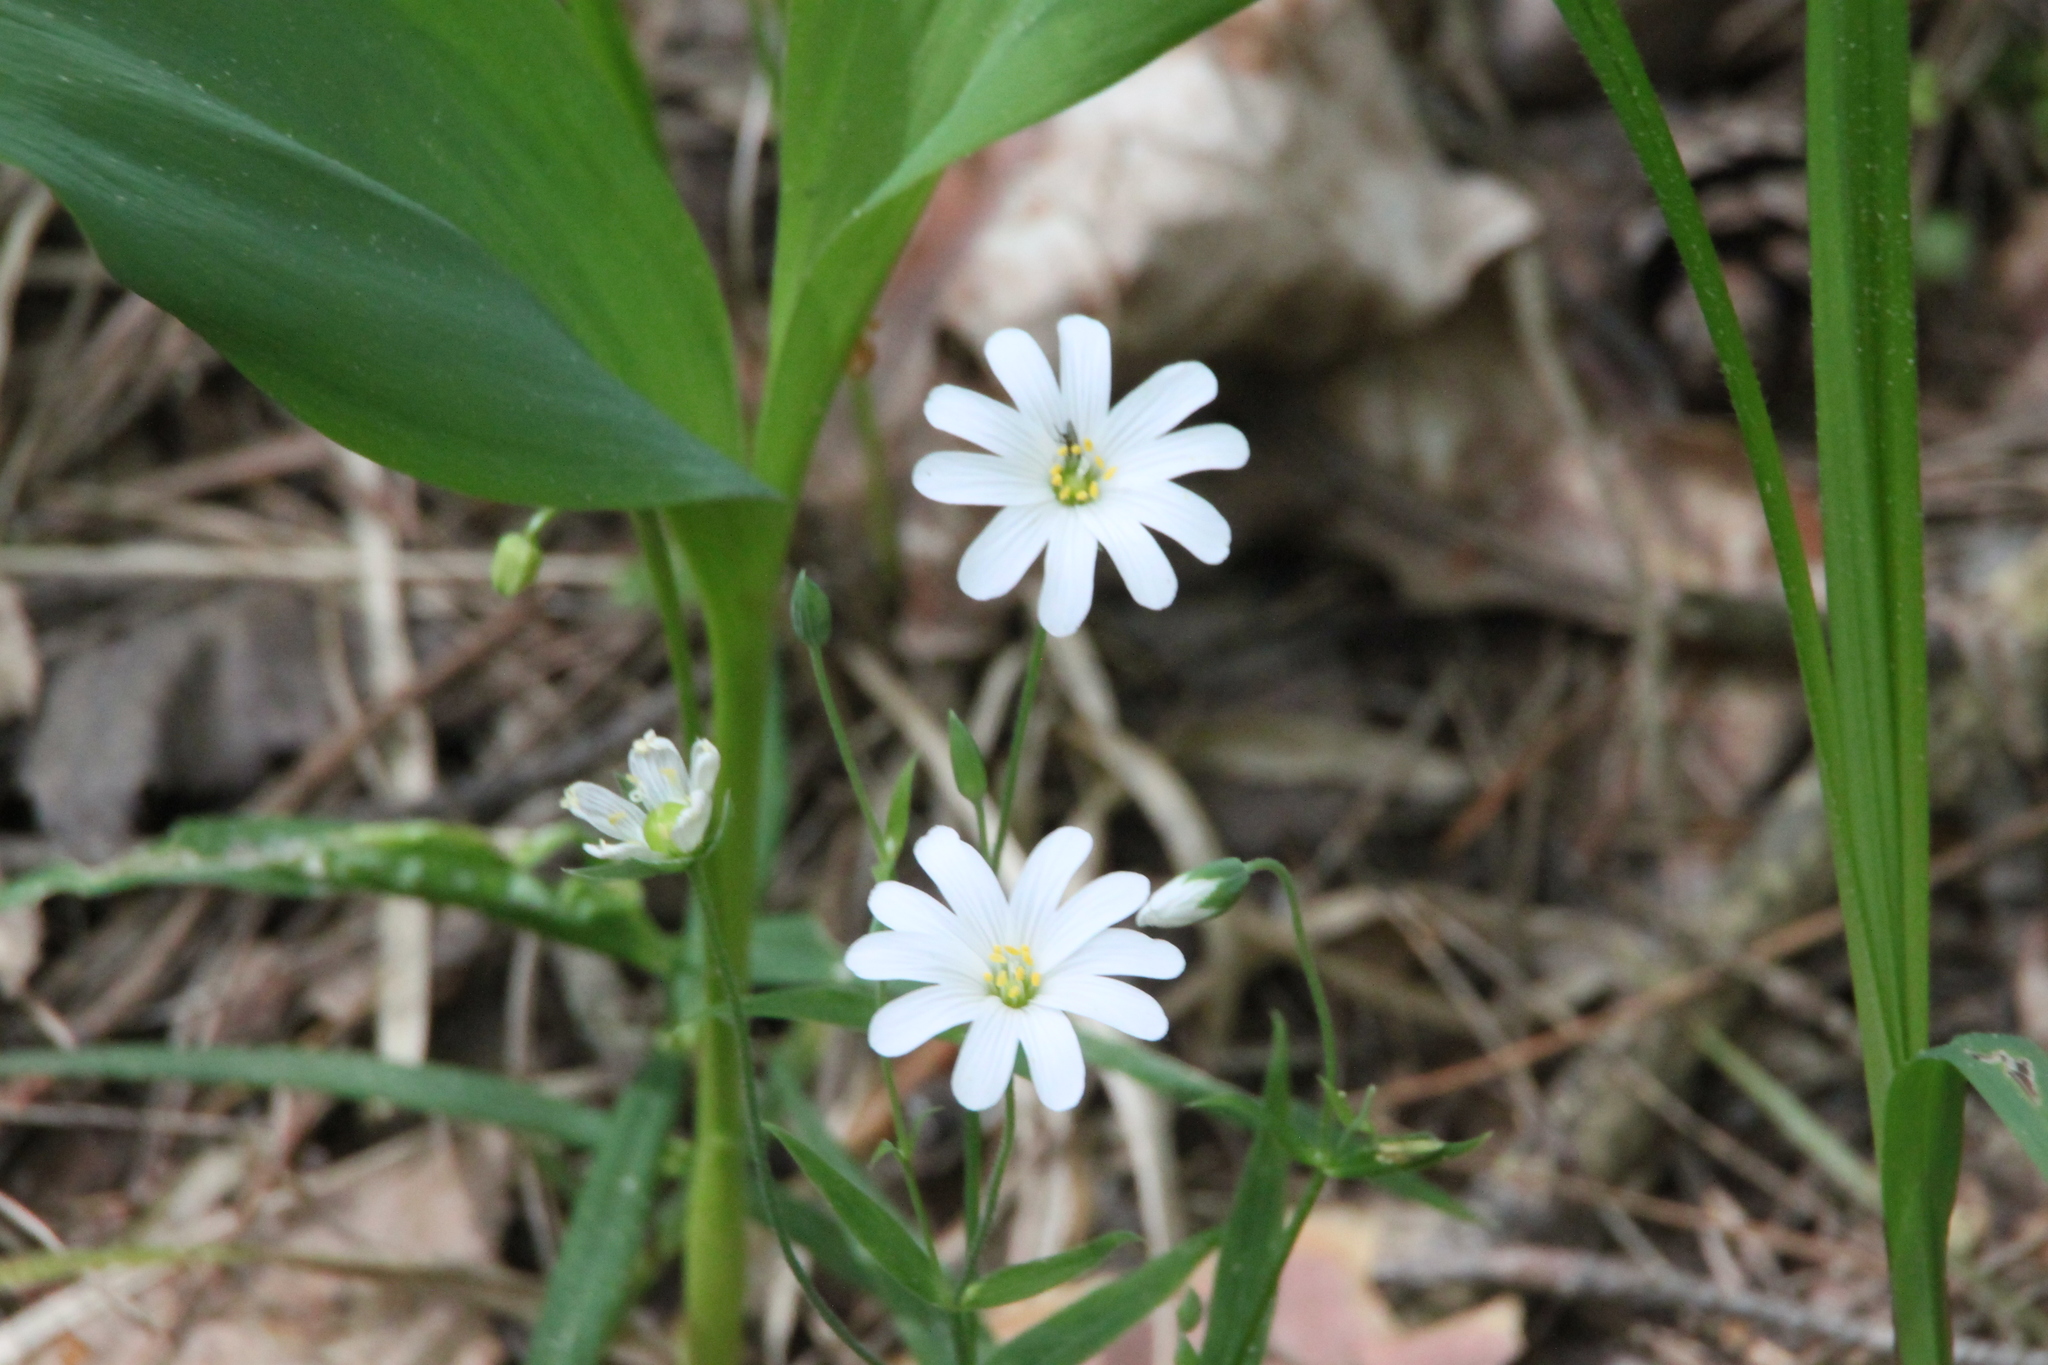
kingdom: Plantae
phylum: Tracheophyta
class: Magnoliopsida
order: Caryophyllales
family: Caryophyllaceae
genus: Rabelera
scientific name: Rabelera holostea
